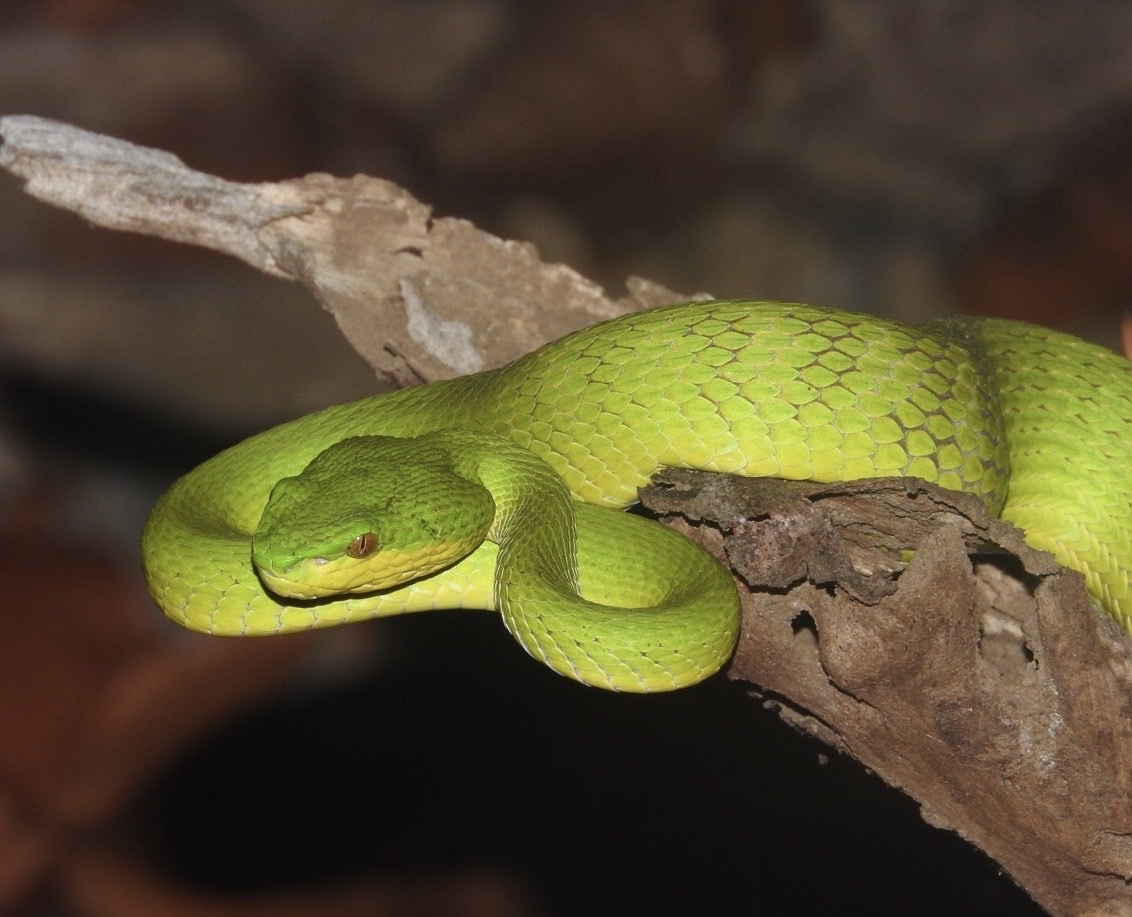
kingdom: Animalia
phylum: Chordata
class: Squamata
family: Viperidae
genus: Trimeresurus
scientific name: Trimeresurus insularis
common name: White-lipped island pitviper
